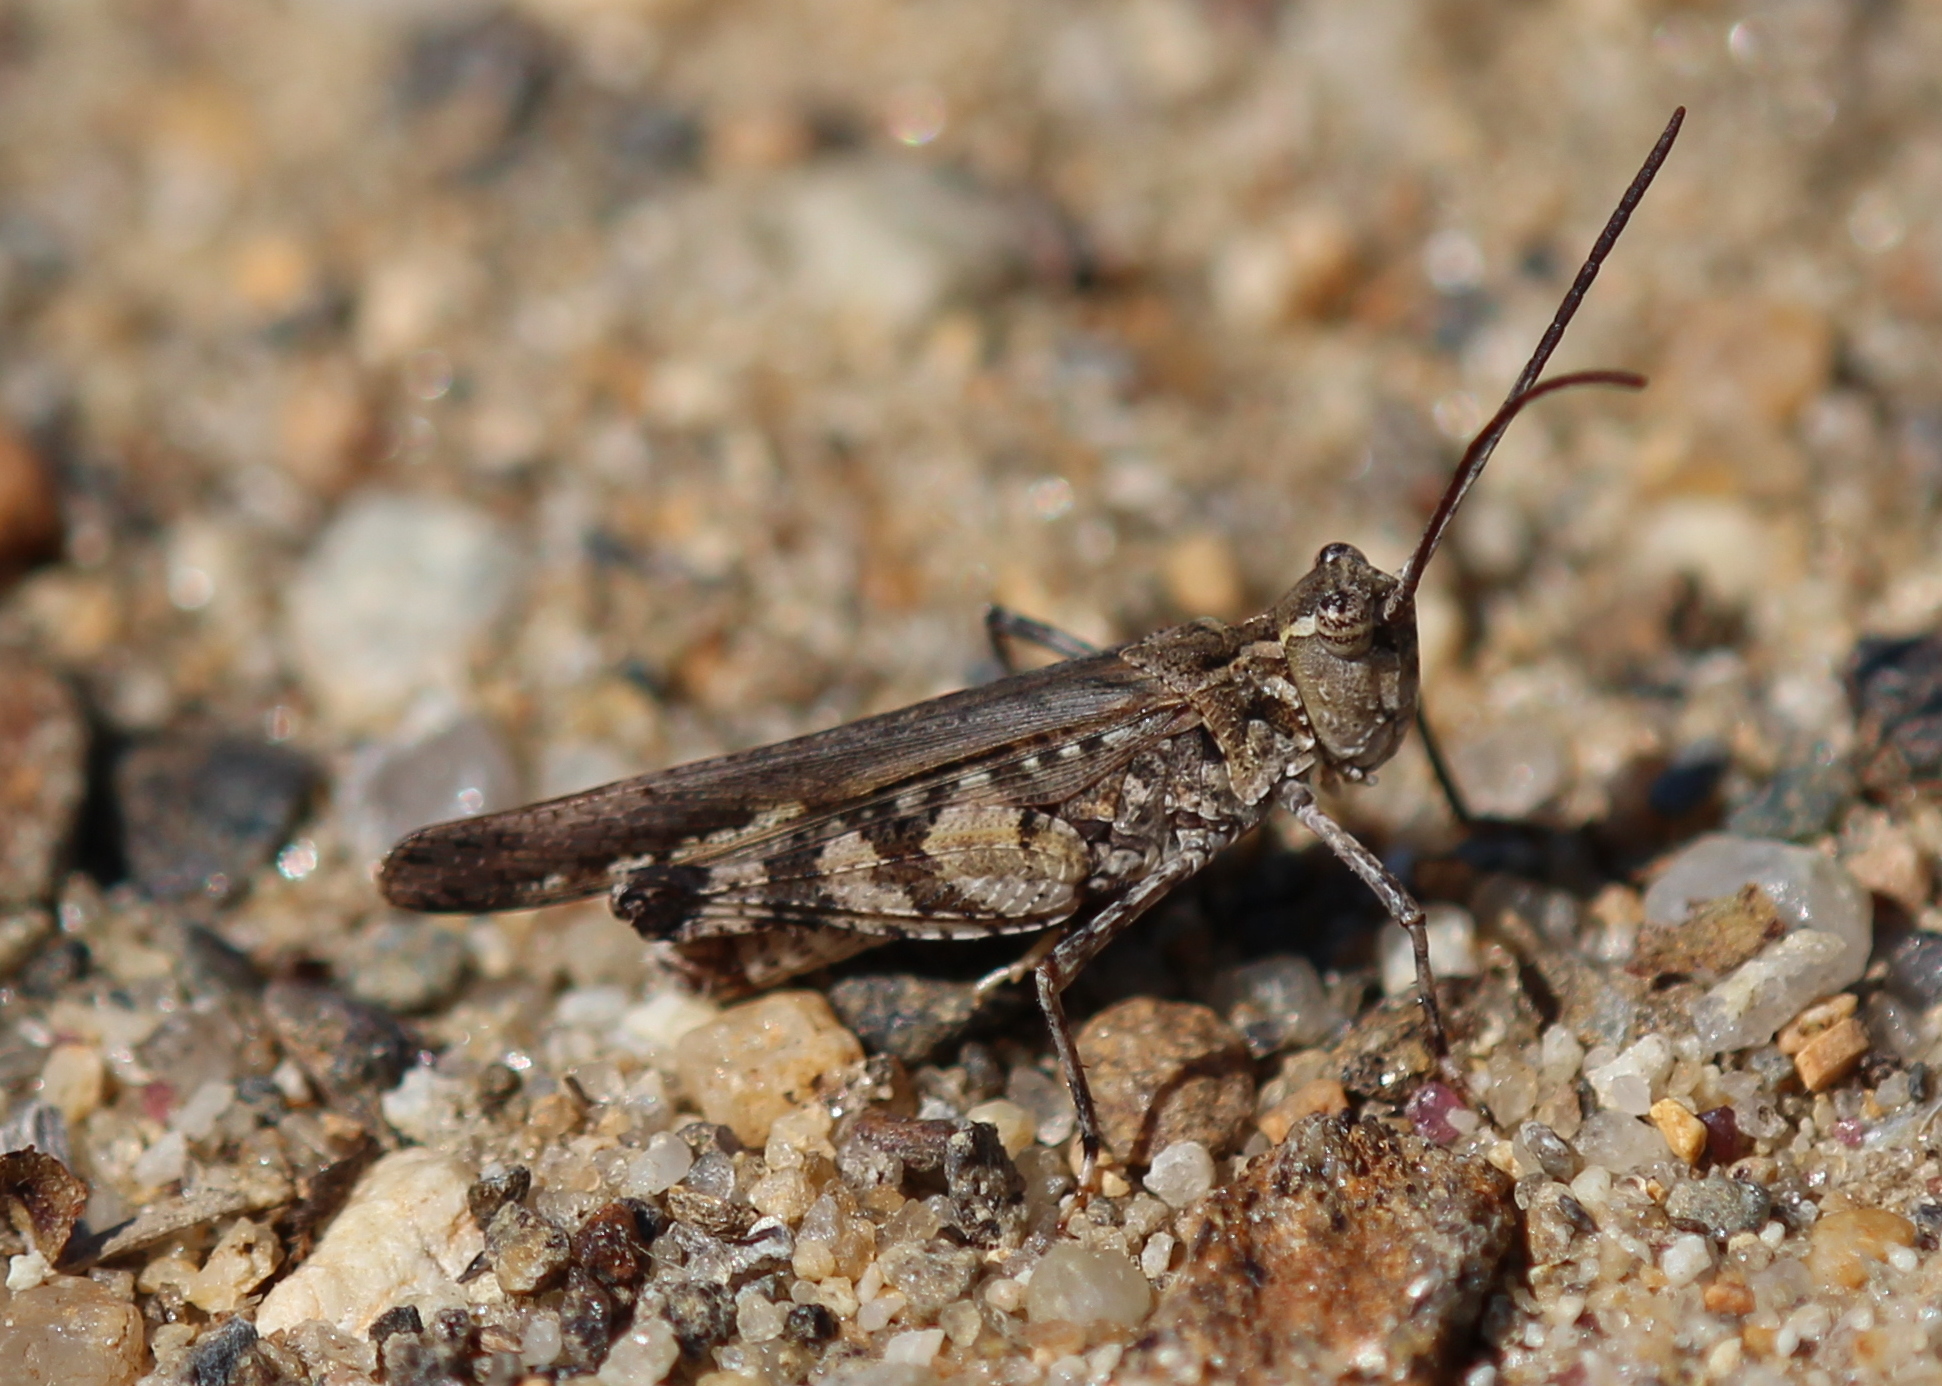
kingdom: Animalia
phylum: Arthropoda
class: Insecta
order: Orthoptera
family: Acrididae
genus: Psinidia
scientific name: Psinidia fenestralis
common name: Long-horned locust
